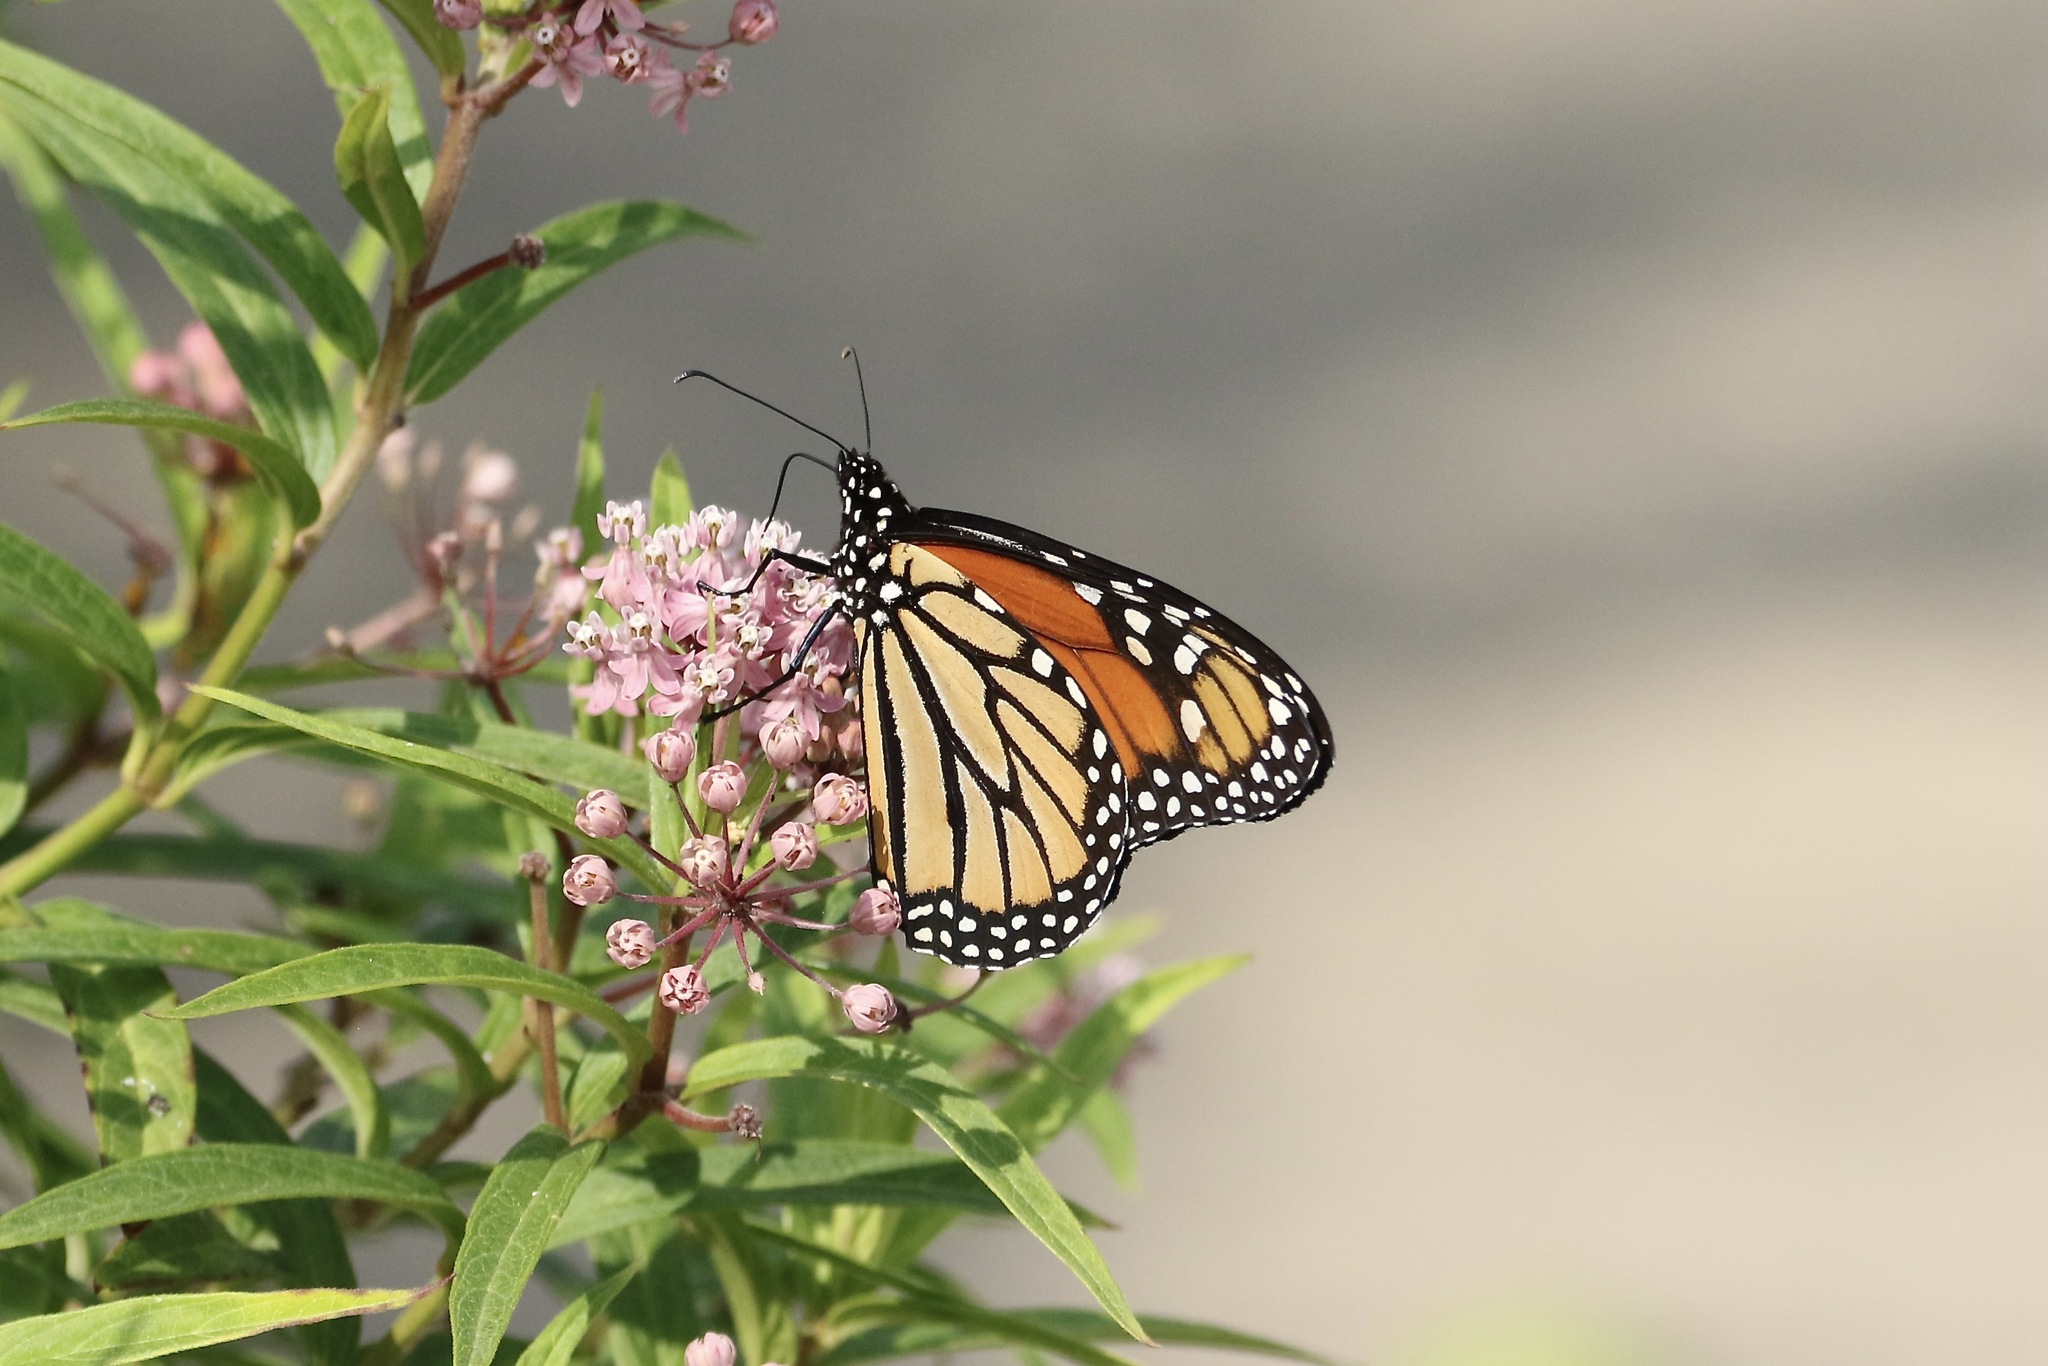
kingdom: Animalia
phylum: Arthropoda
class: Insecta
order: Lepidoptera
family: Nymphalidae
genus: Danaus
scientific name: Danaus plexippus
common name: Monarch
